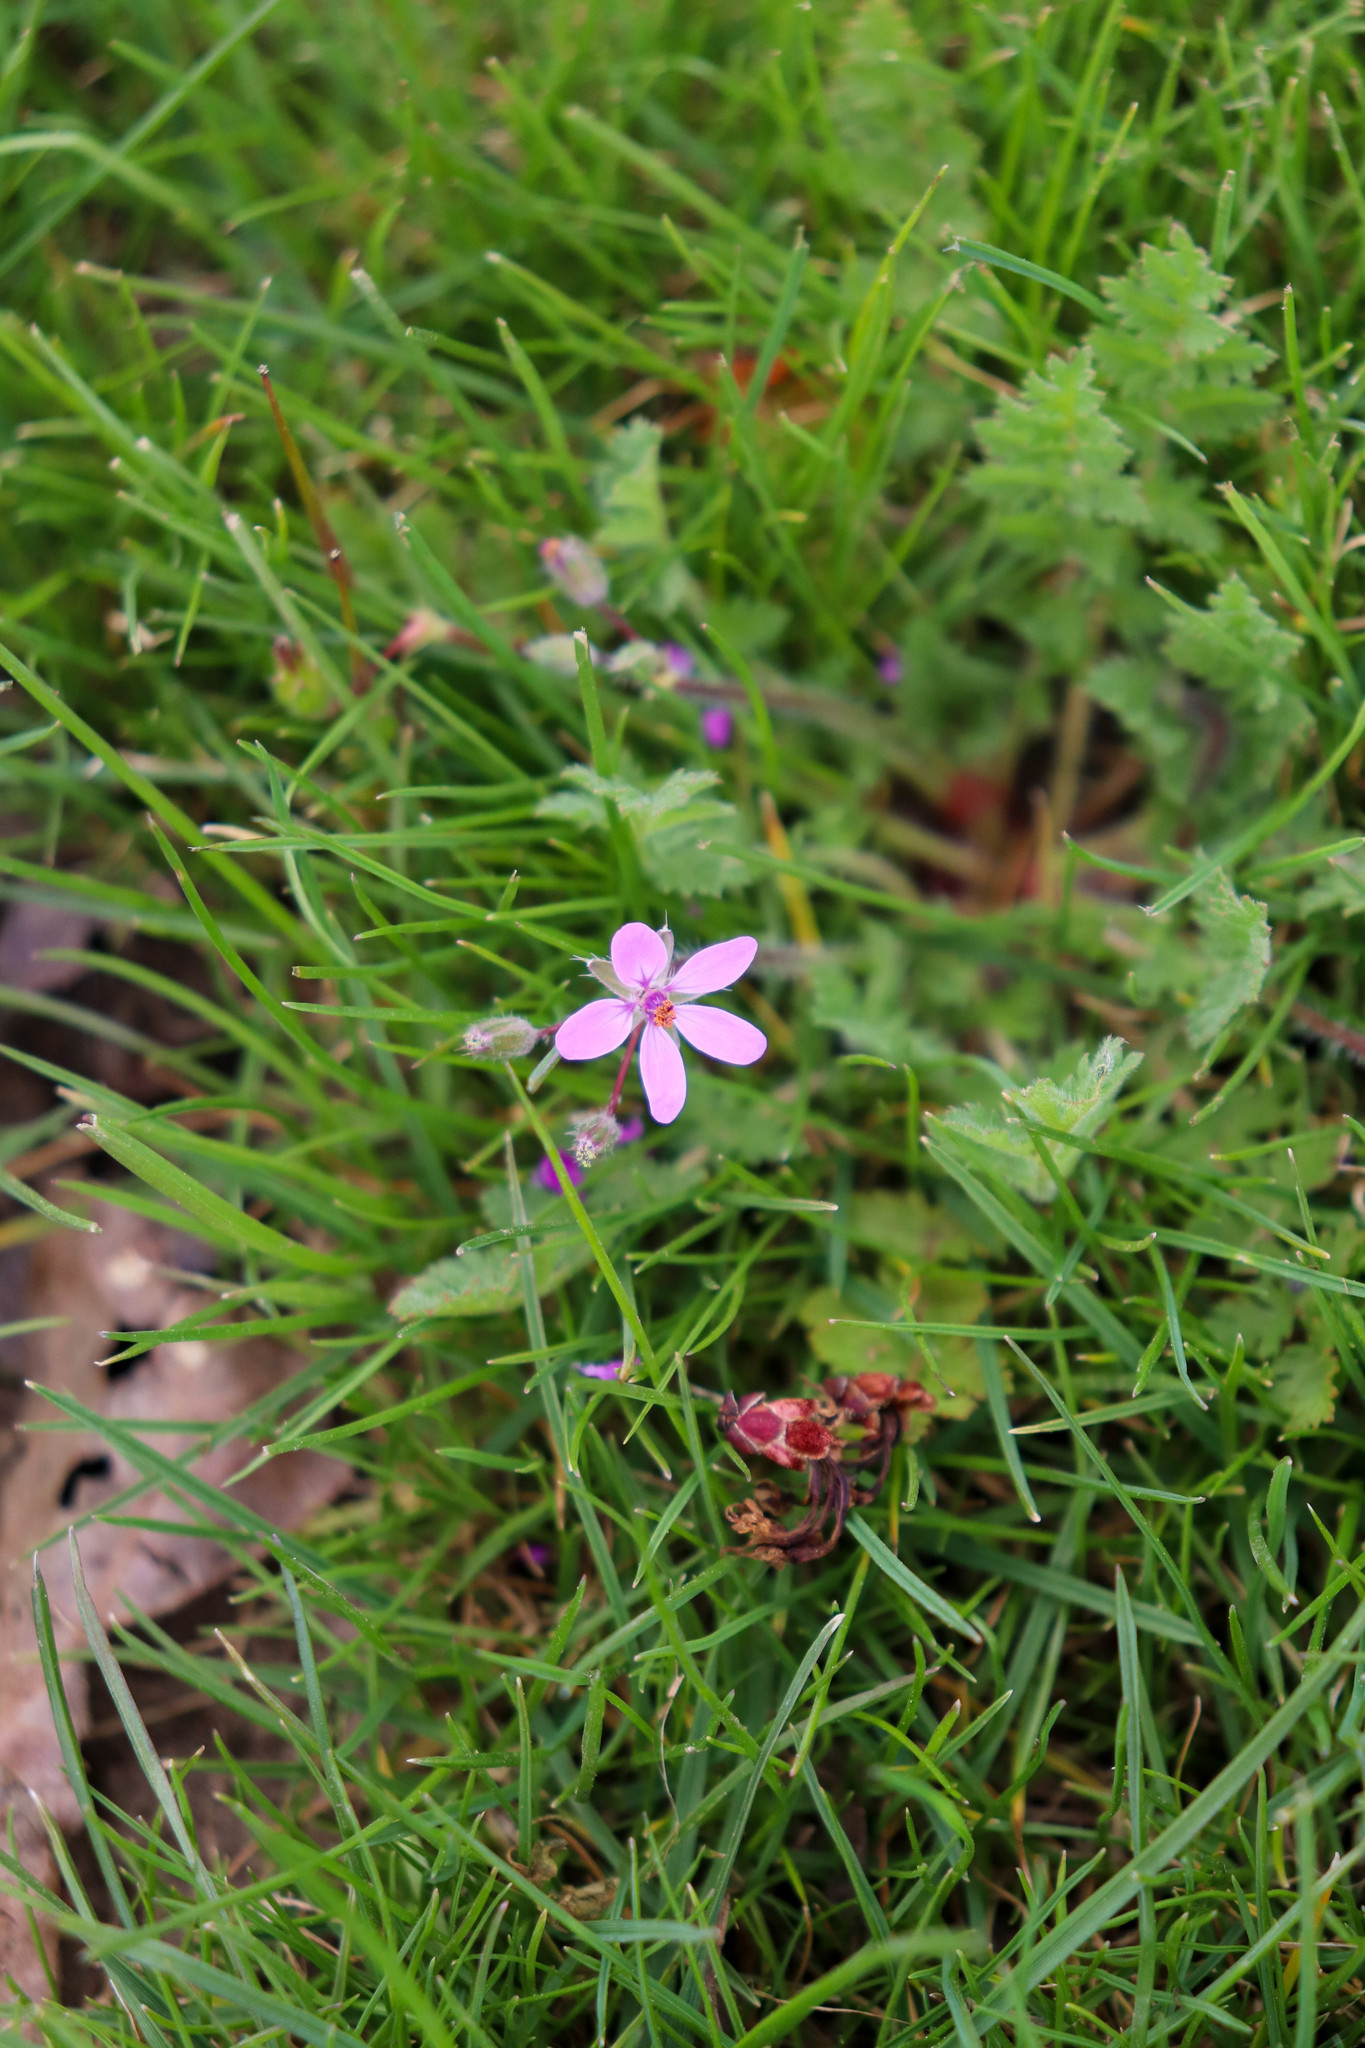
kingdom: Plantae
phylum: Tracheophyta
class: Magnoliopsida
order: Geraniales
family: Geraniaceae
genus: Erodium
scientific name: Erodium cicutarium
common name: Common stork's-bill
